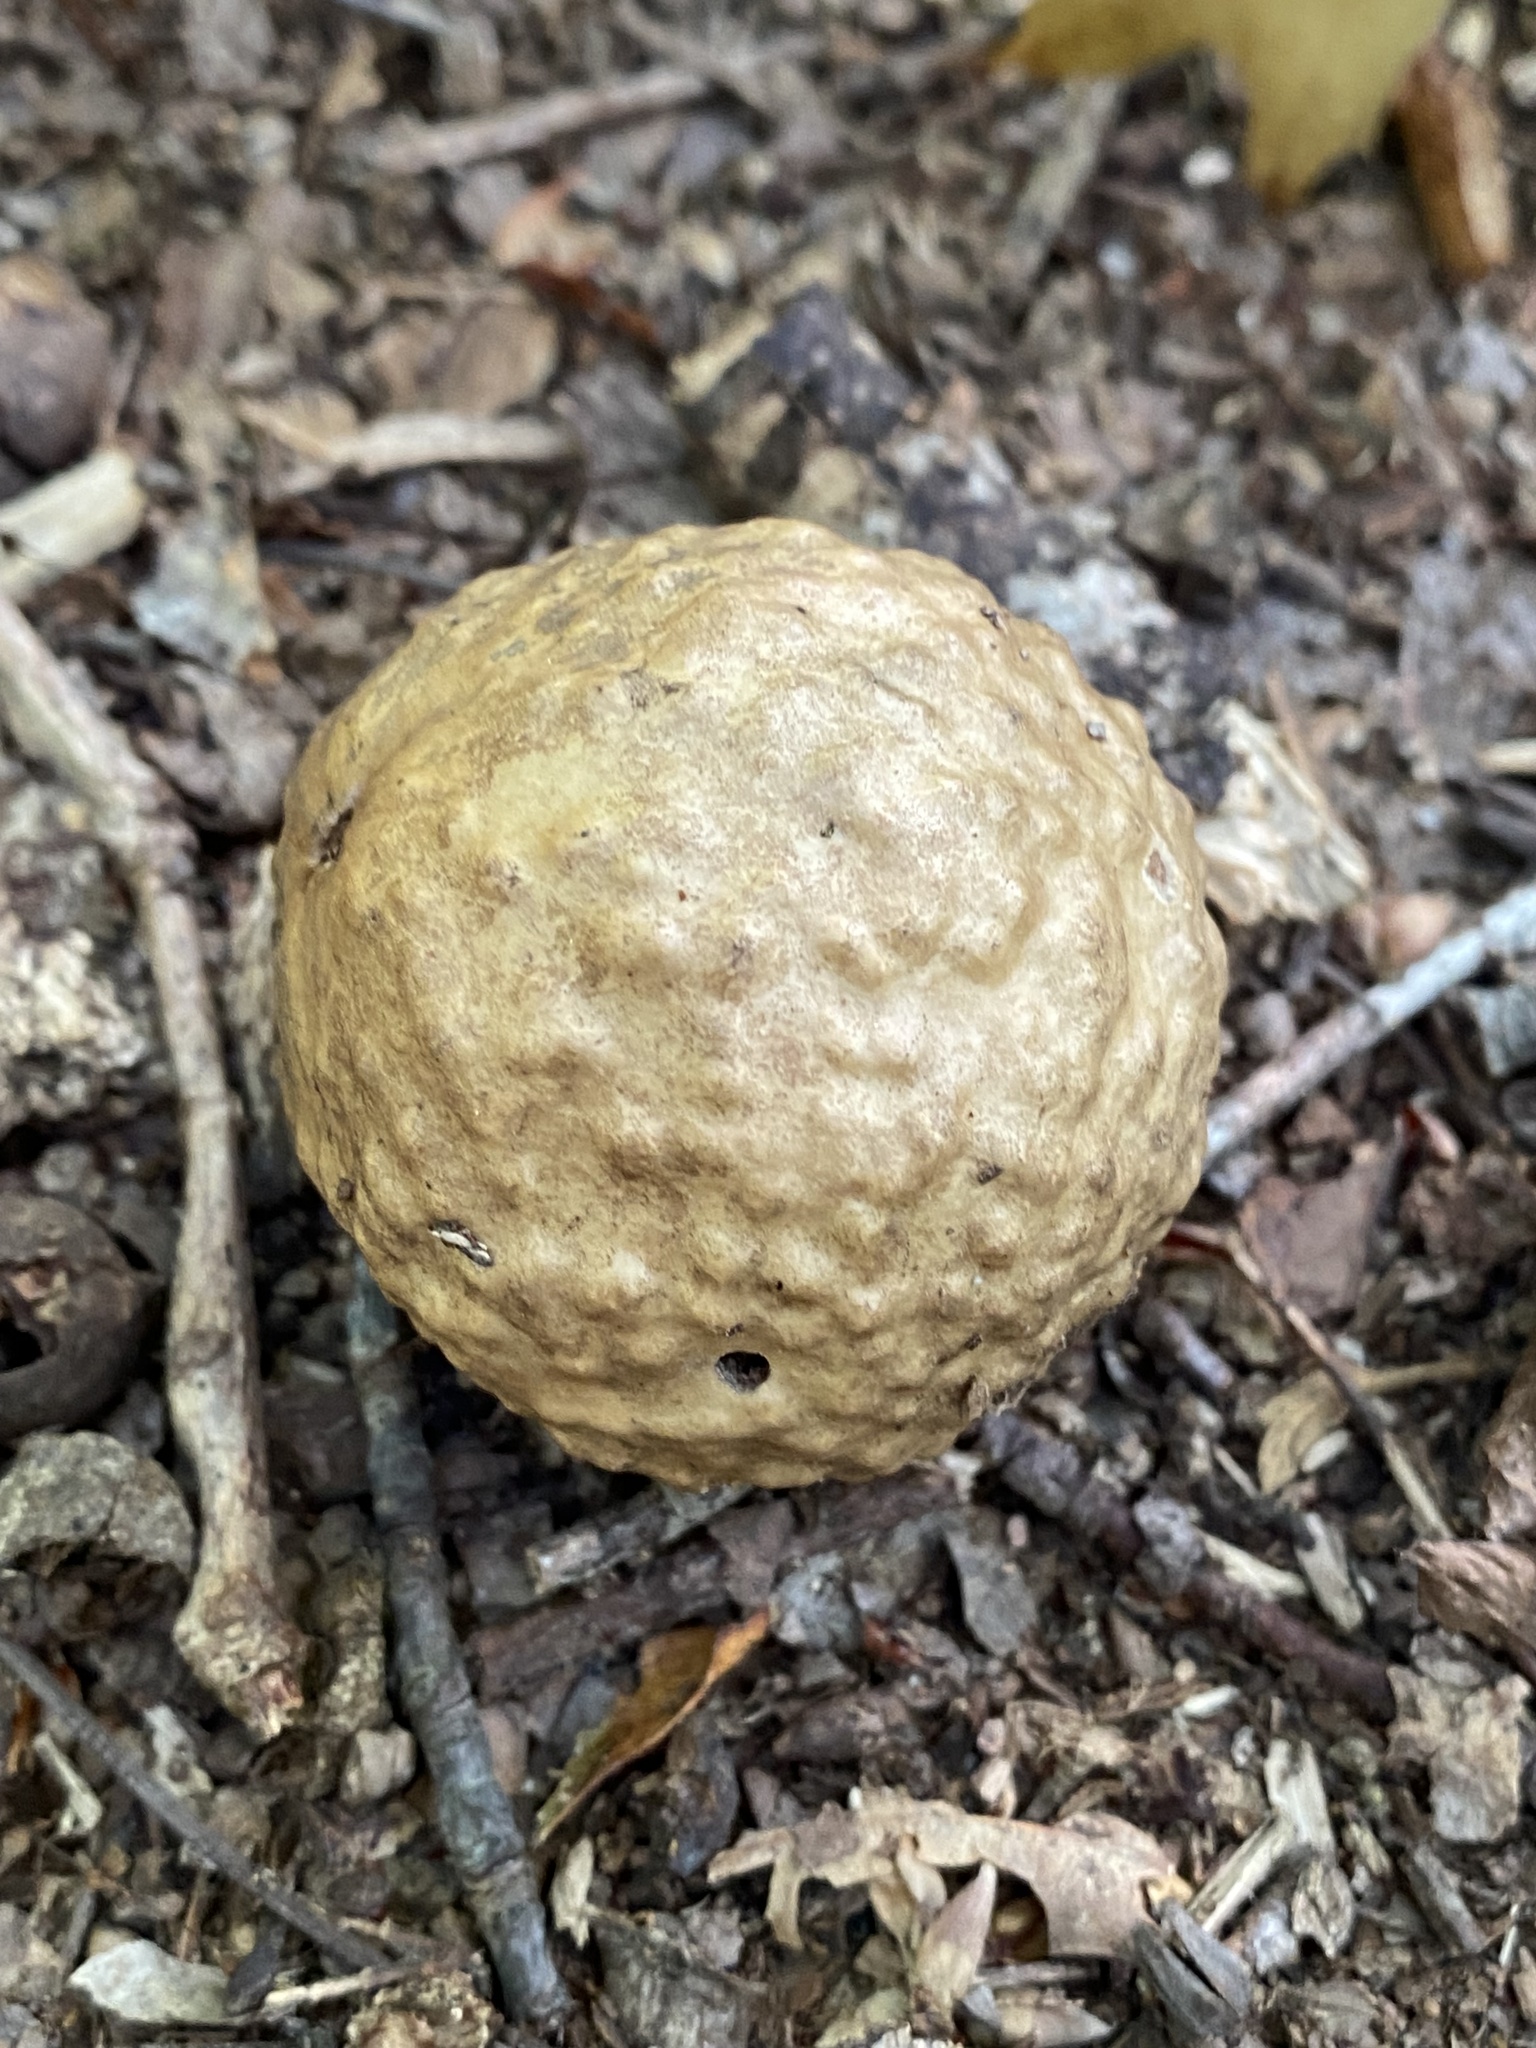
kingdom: Animalia
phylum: Arthropoda
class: Insecta
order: Hymenoptera
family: Cynipidae
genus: Amphibolips
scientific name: Amphibolips
